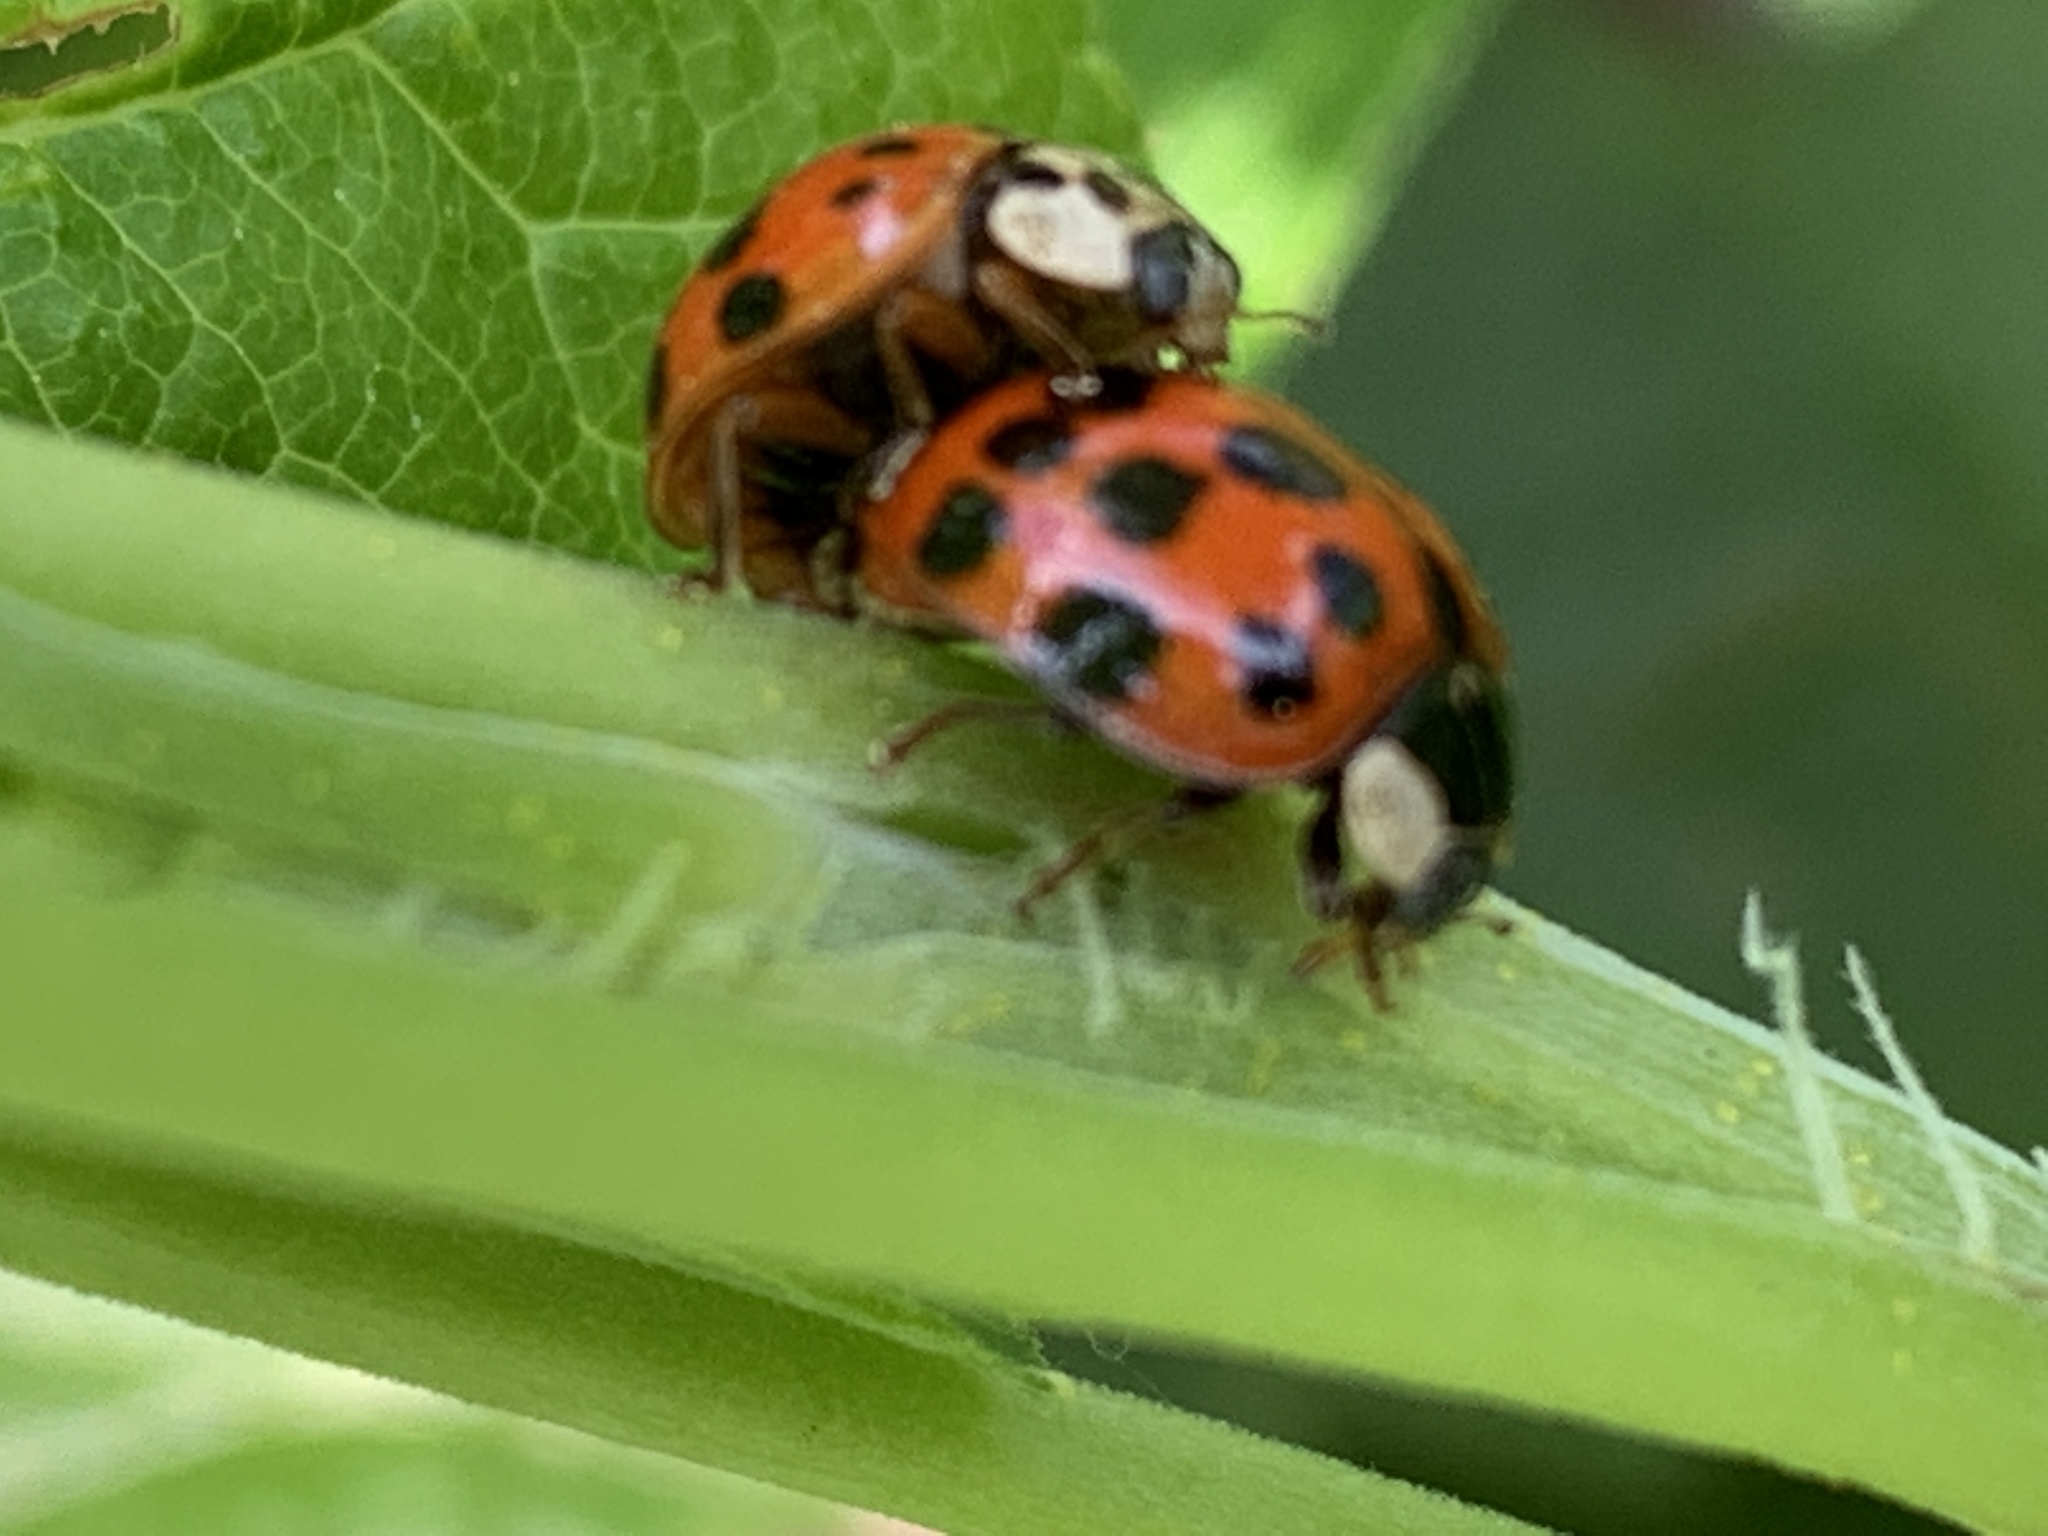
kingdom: Animalia
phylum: Arthropoda
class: Insecta
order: Coleoptera
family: Coccinellidae
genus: Harmonia
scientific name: Harmonia axyridis
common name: Harlequin ladybird
